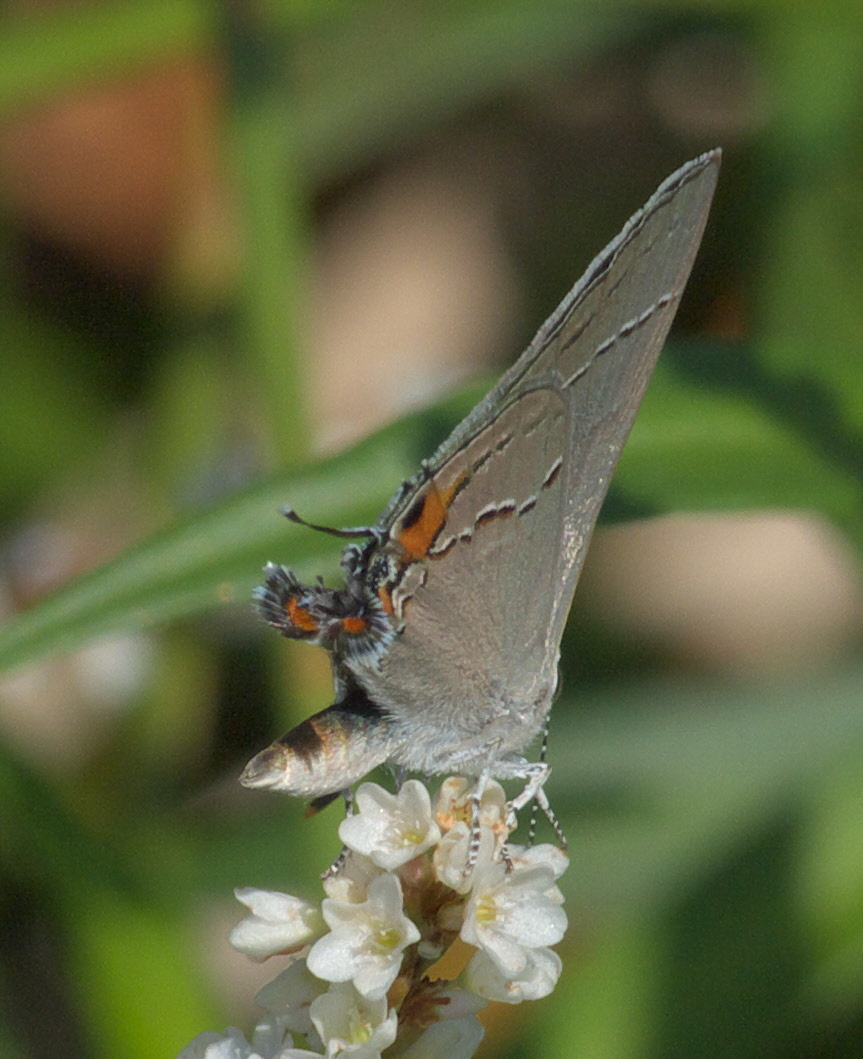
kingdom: Animalia
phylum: Arthropoda
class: Insecta
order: Lepidoptera
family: Lycaenidae
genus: Strymon
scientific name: Strymon melinus
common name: Gray hairstreak
